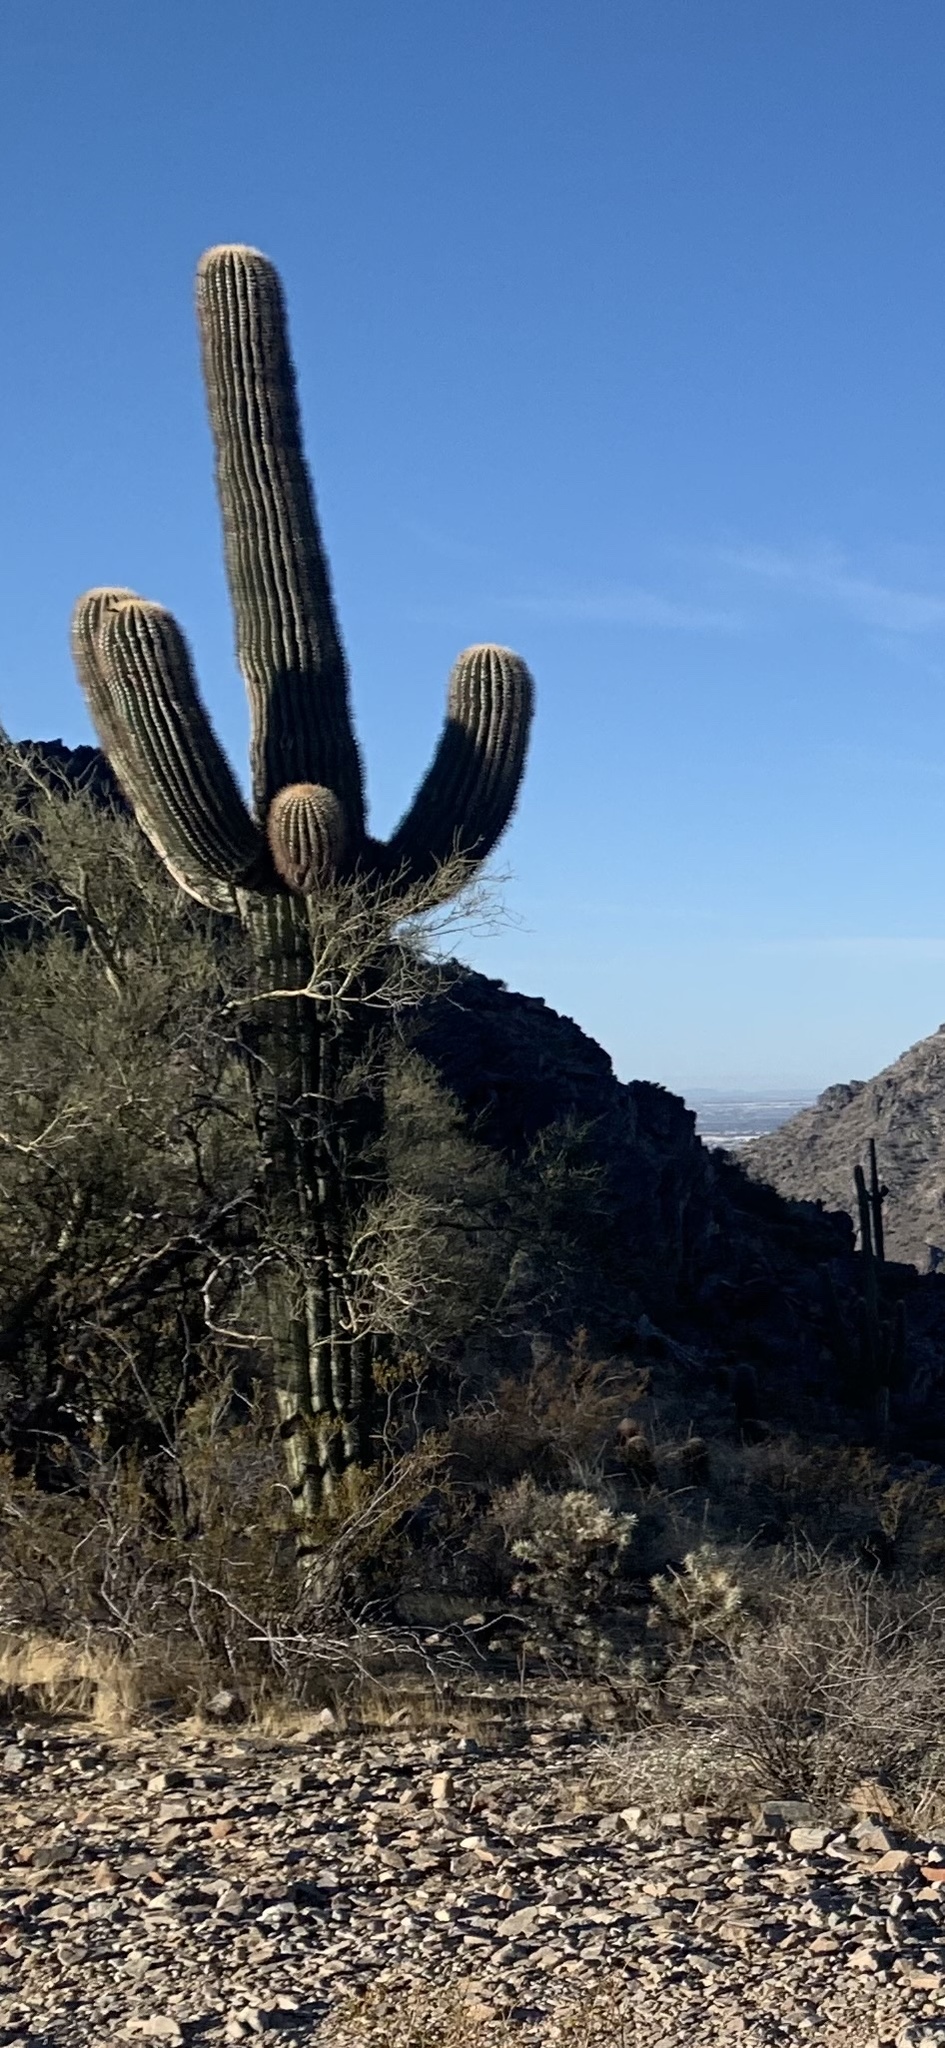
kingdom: Plantae
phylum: Tracheophyta
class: Magnoliopsida
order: Caryophyllales
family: Cactaceae
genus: Carnegiea
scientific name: Carnegiea gigantea
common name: Saguaro
